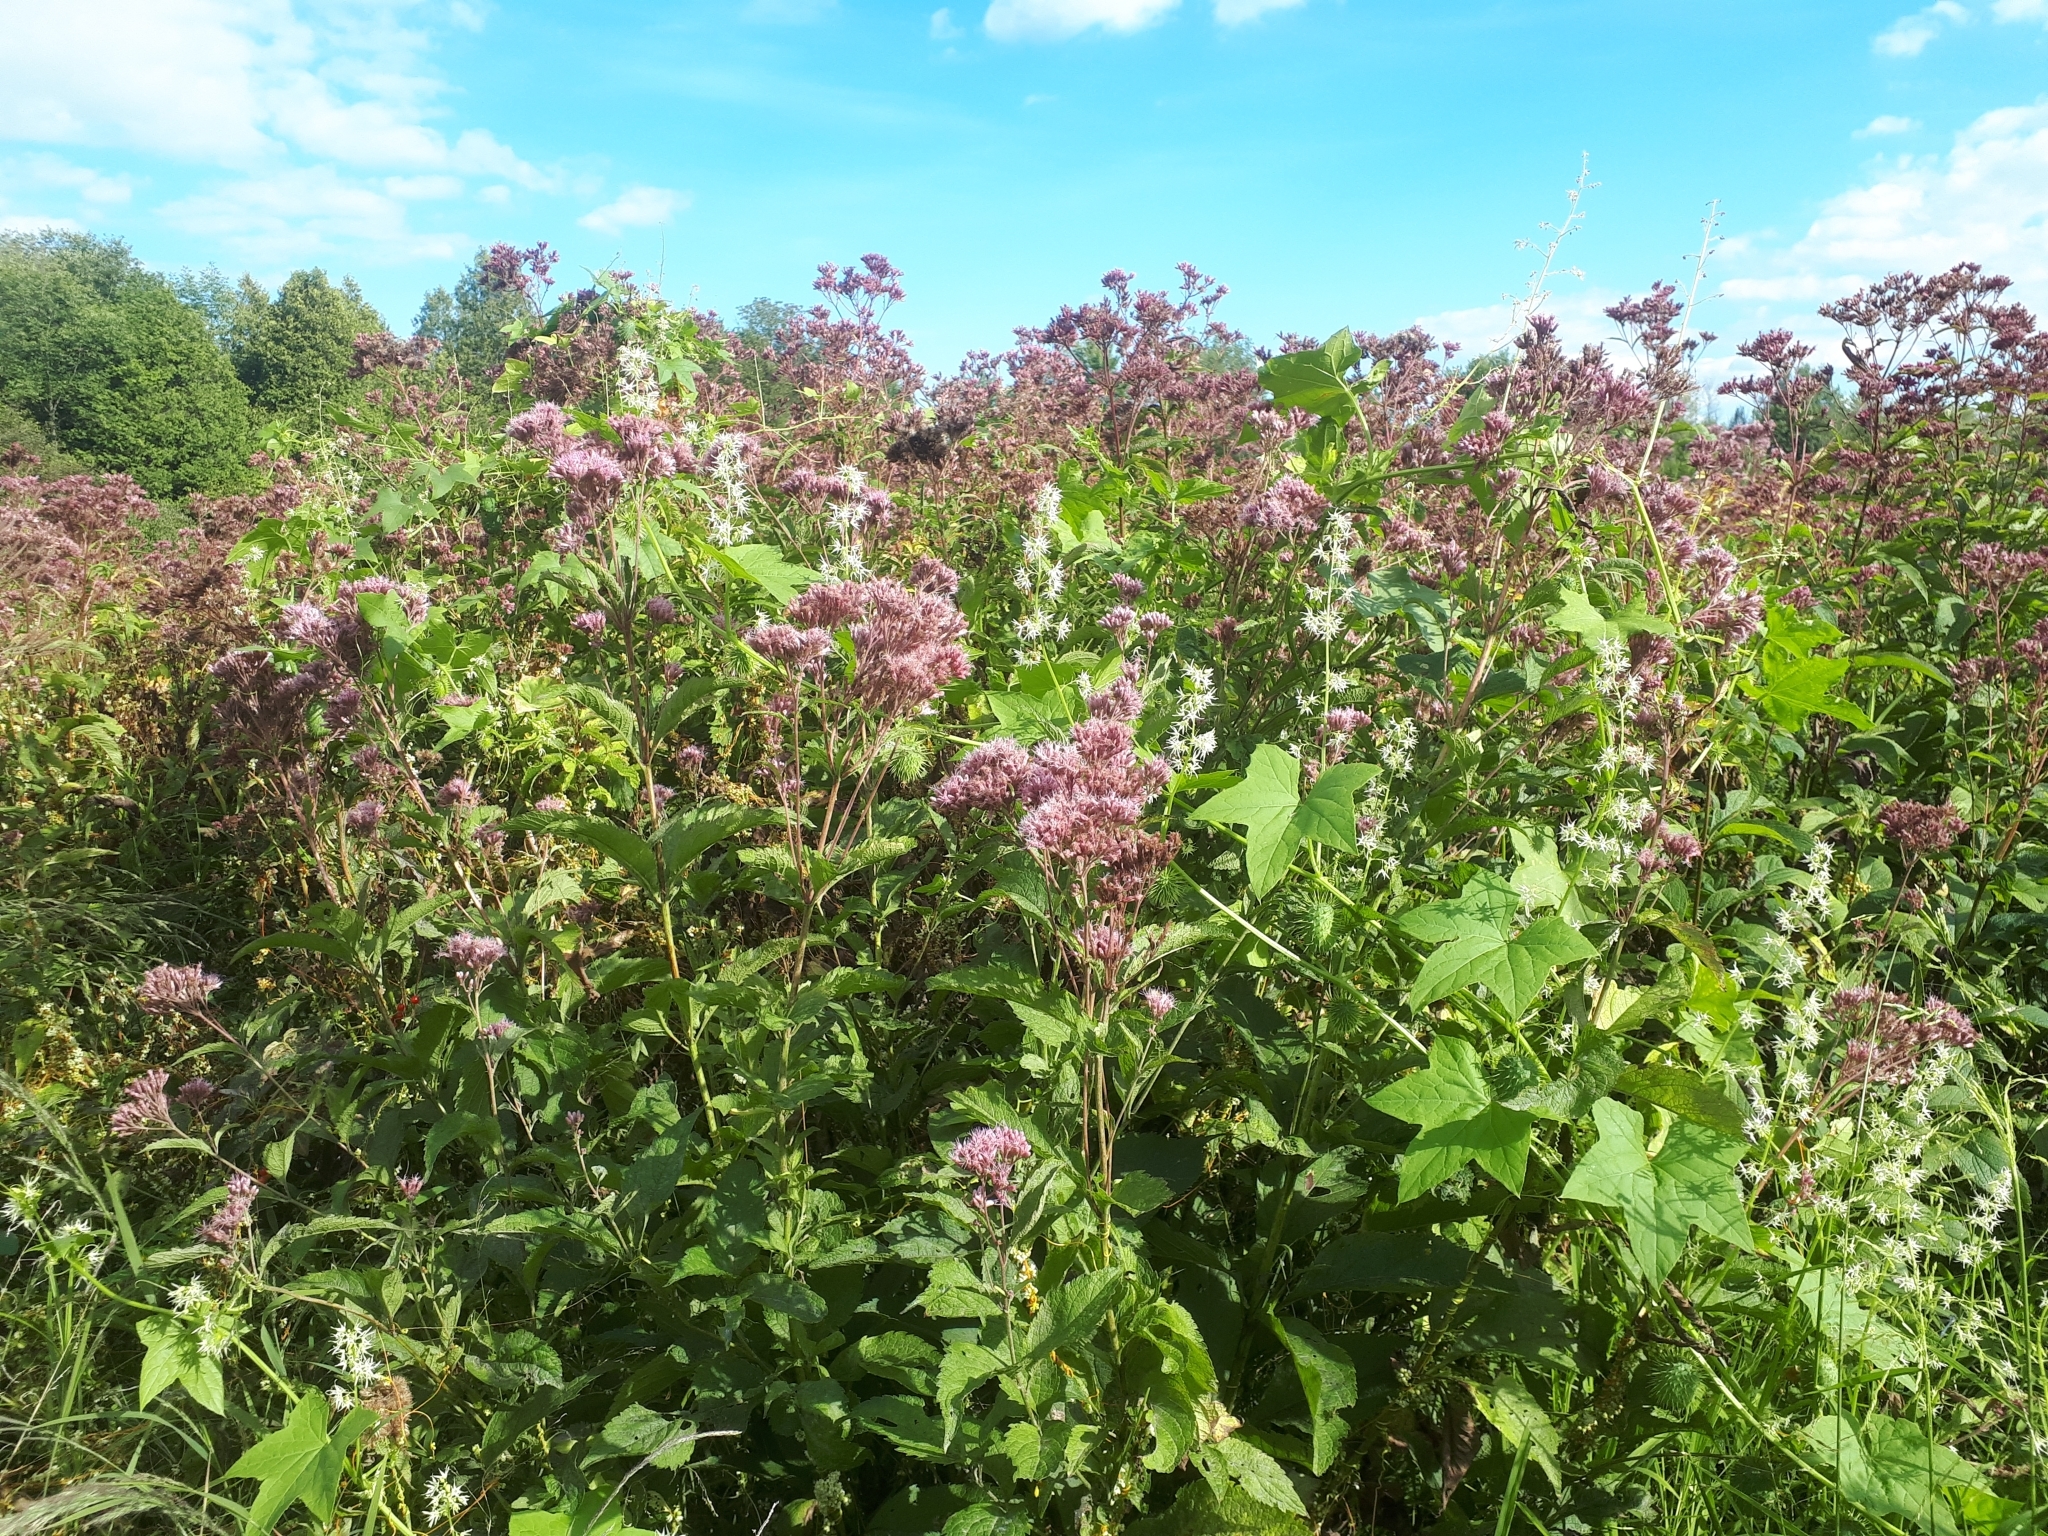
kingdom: Plantae
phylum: Tracheophyta
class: Magnoliopsida
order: Asterales
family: Asteraceae
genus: Eutrochium
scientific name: Eutrochium maculatum
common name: Spotted joe pye weed
